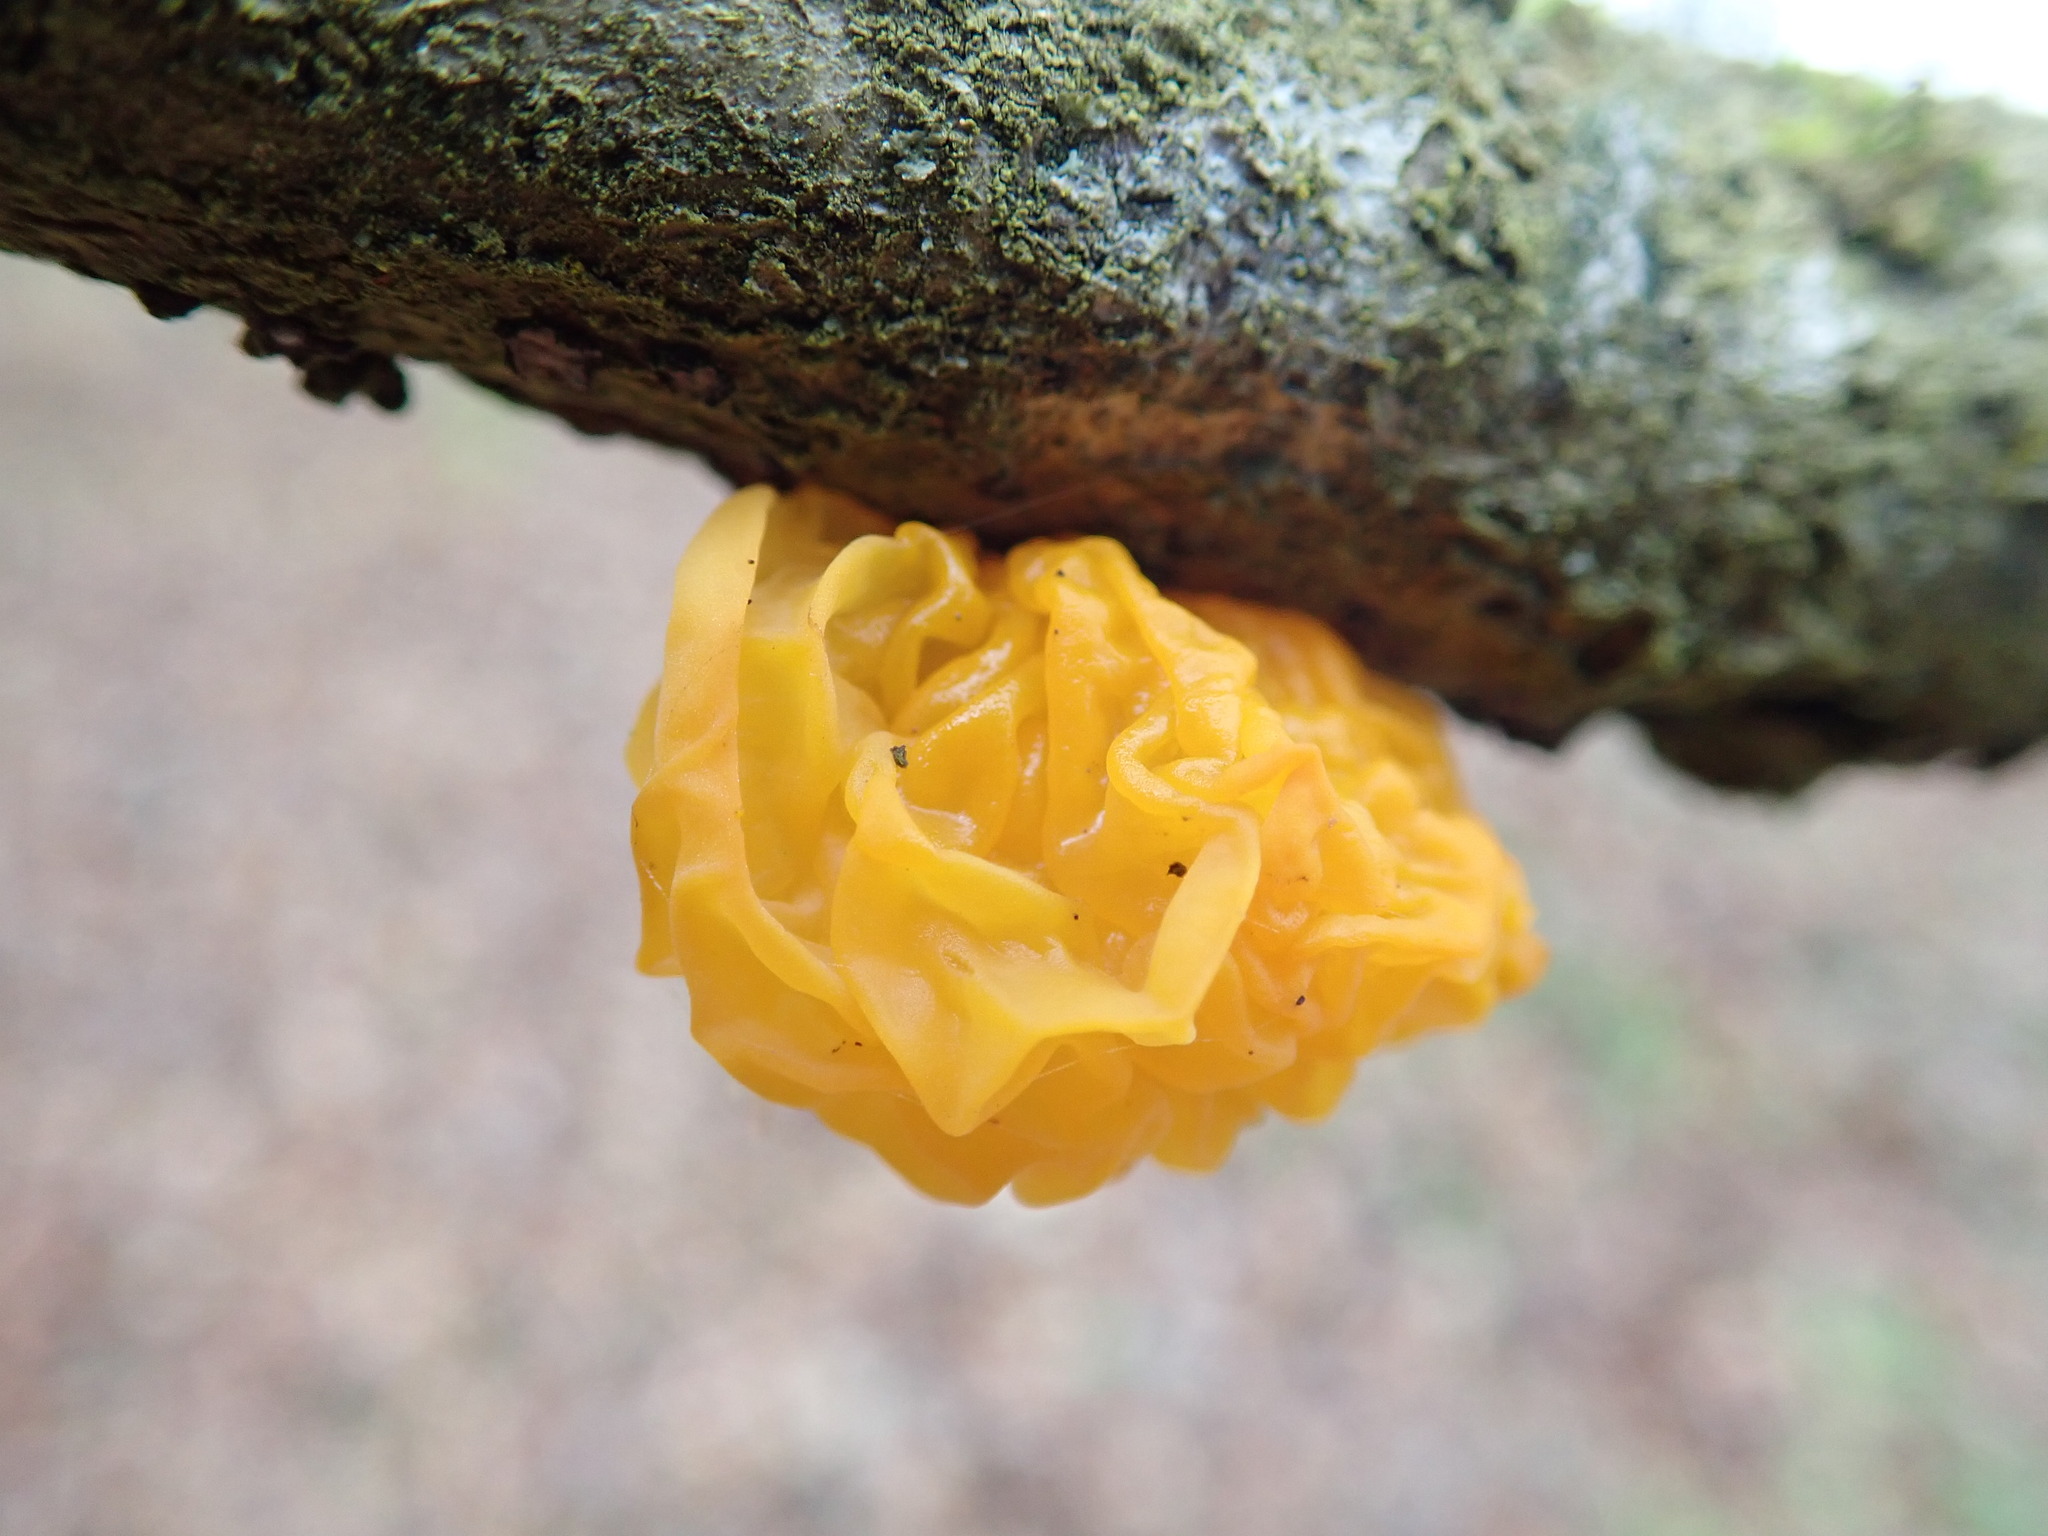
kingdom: Fungi
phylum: Basidiomycota
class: Tremellomycetes
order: Tremellales
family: Tremellaceae
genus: Tremella
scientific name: Tremella mesenterica
